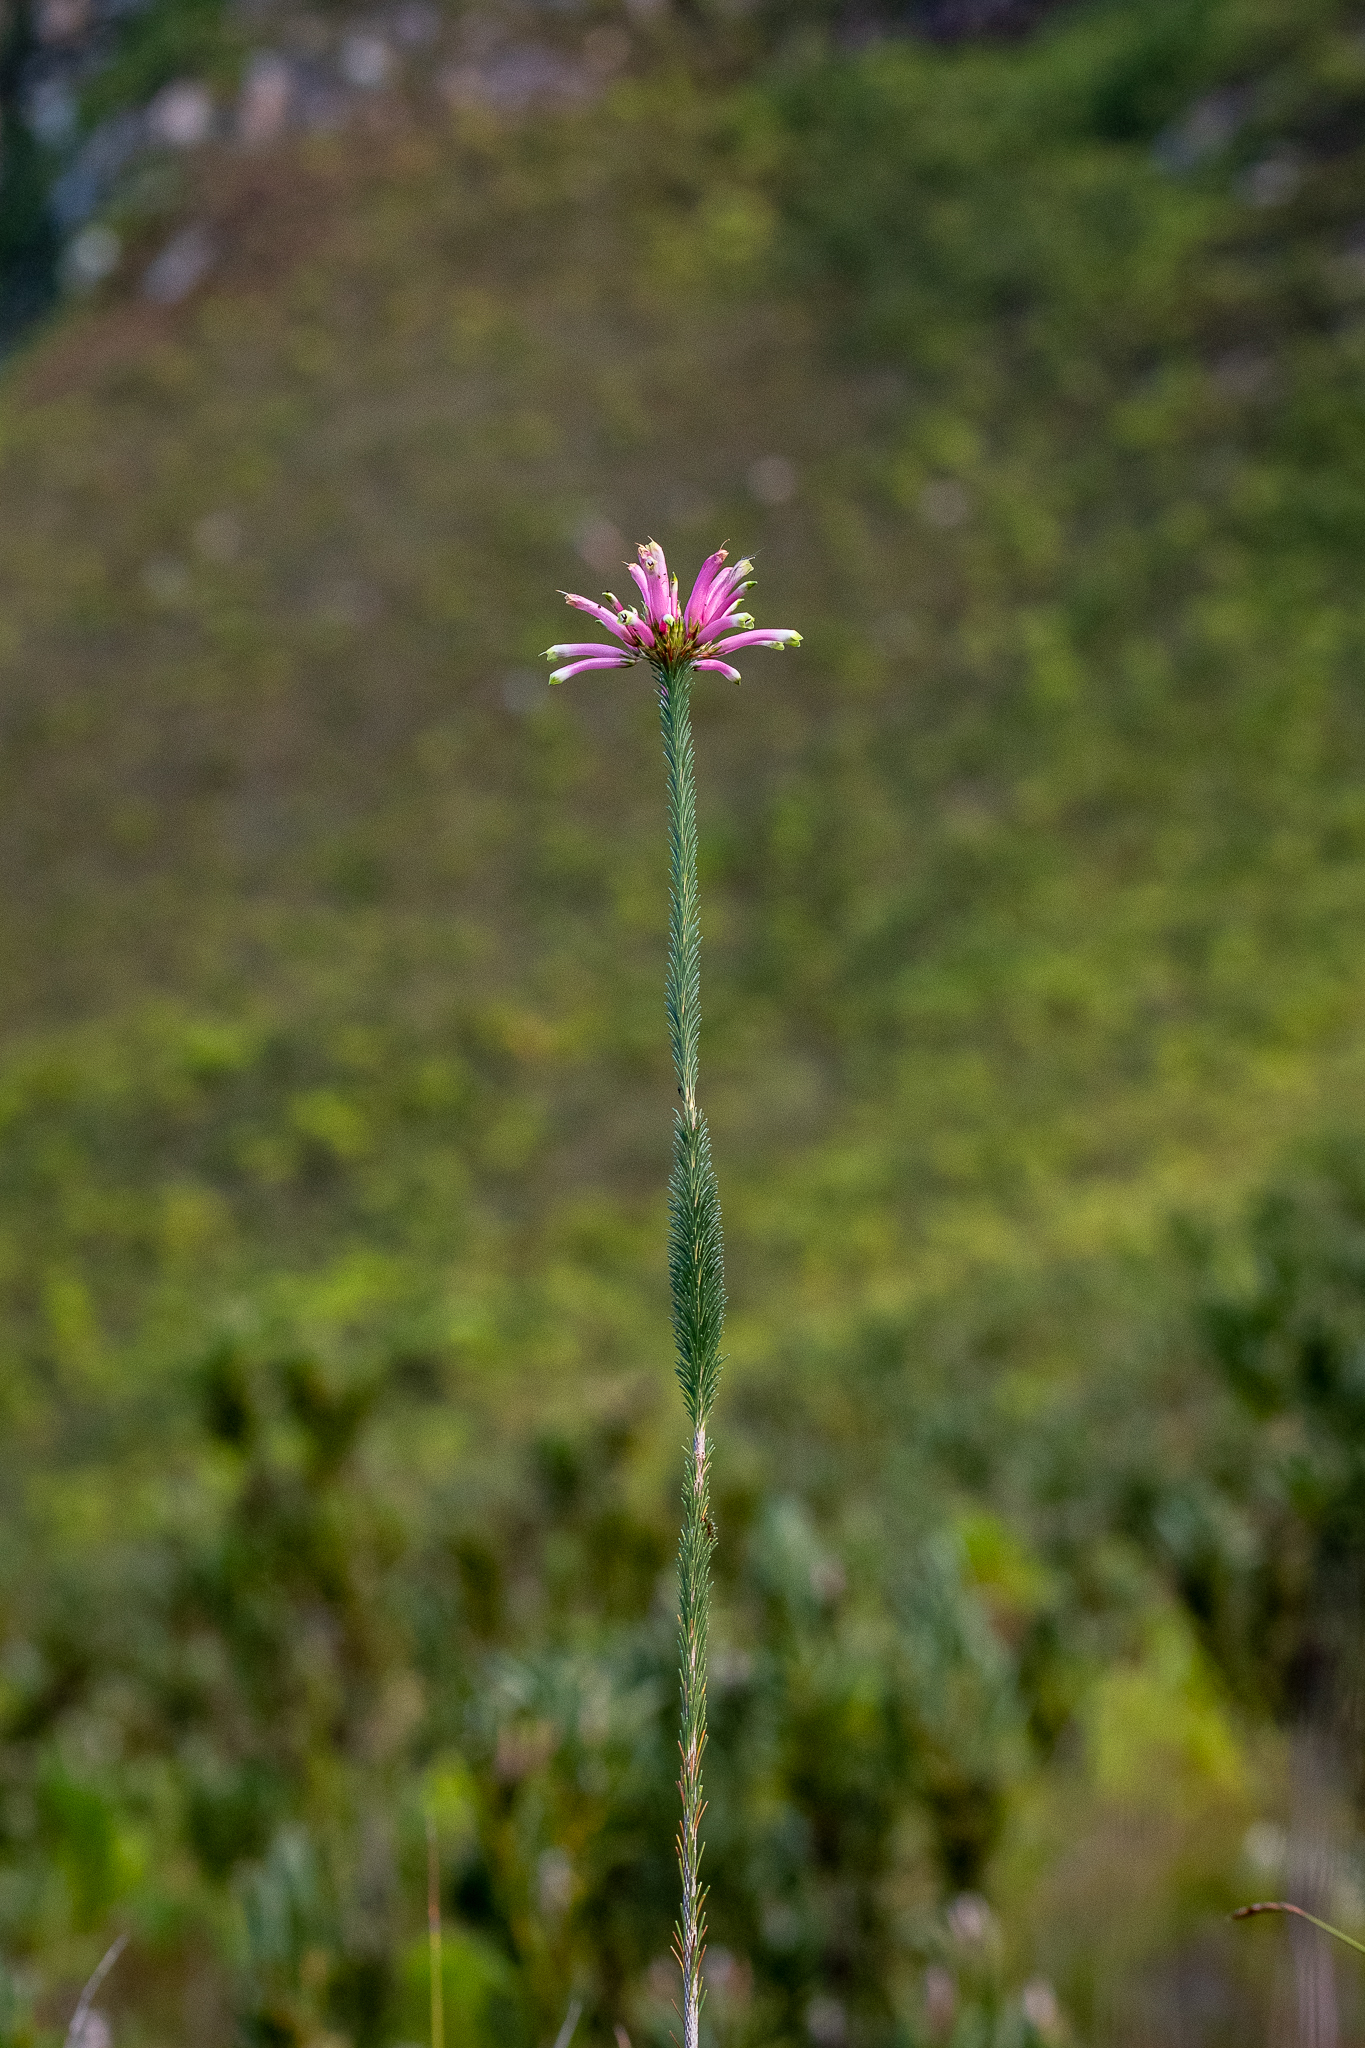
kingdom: Plantae
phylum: Tracheophyta
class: Magnoliopsida
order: Ericales
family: Ericaceae
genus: Erica
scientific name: Erica fascicularis
